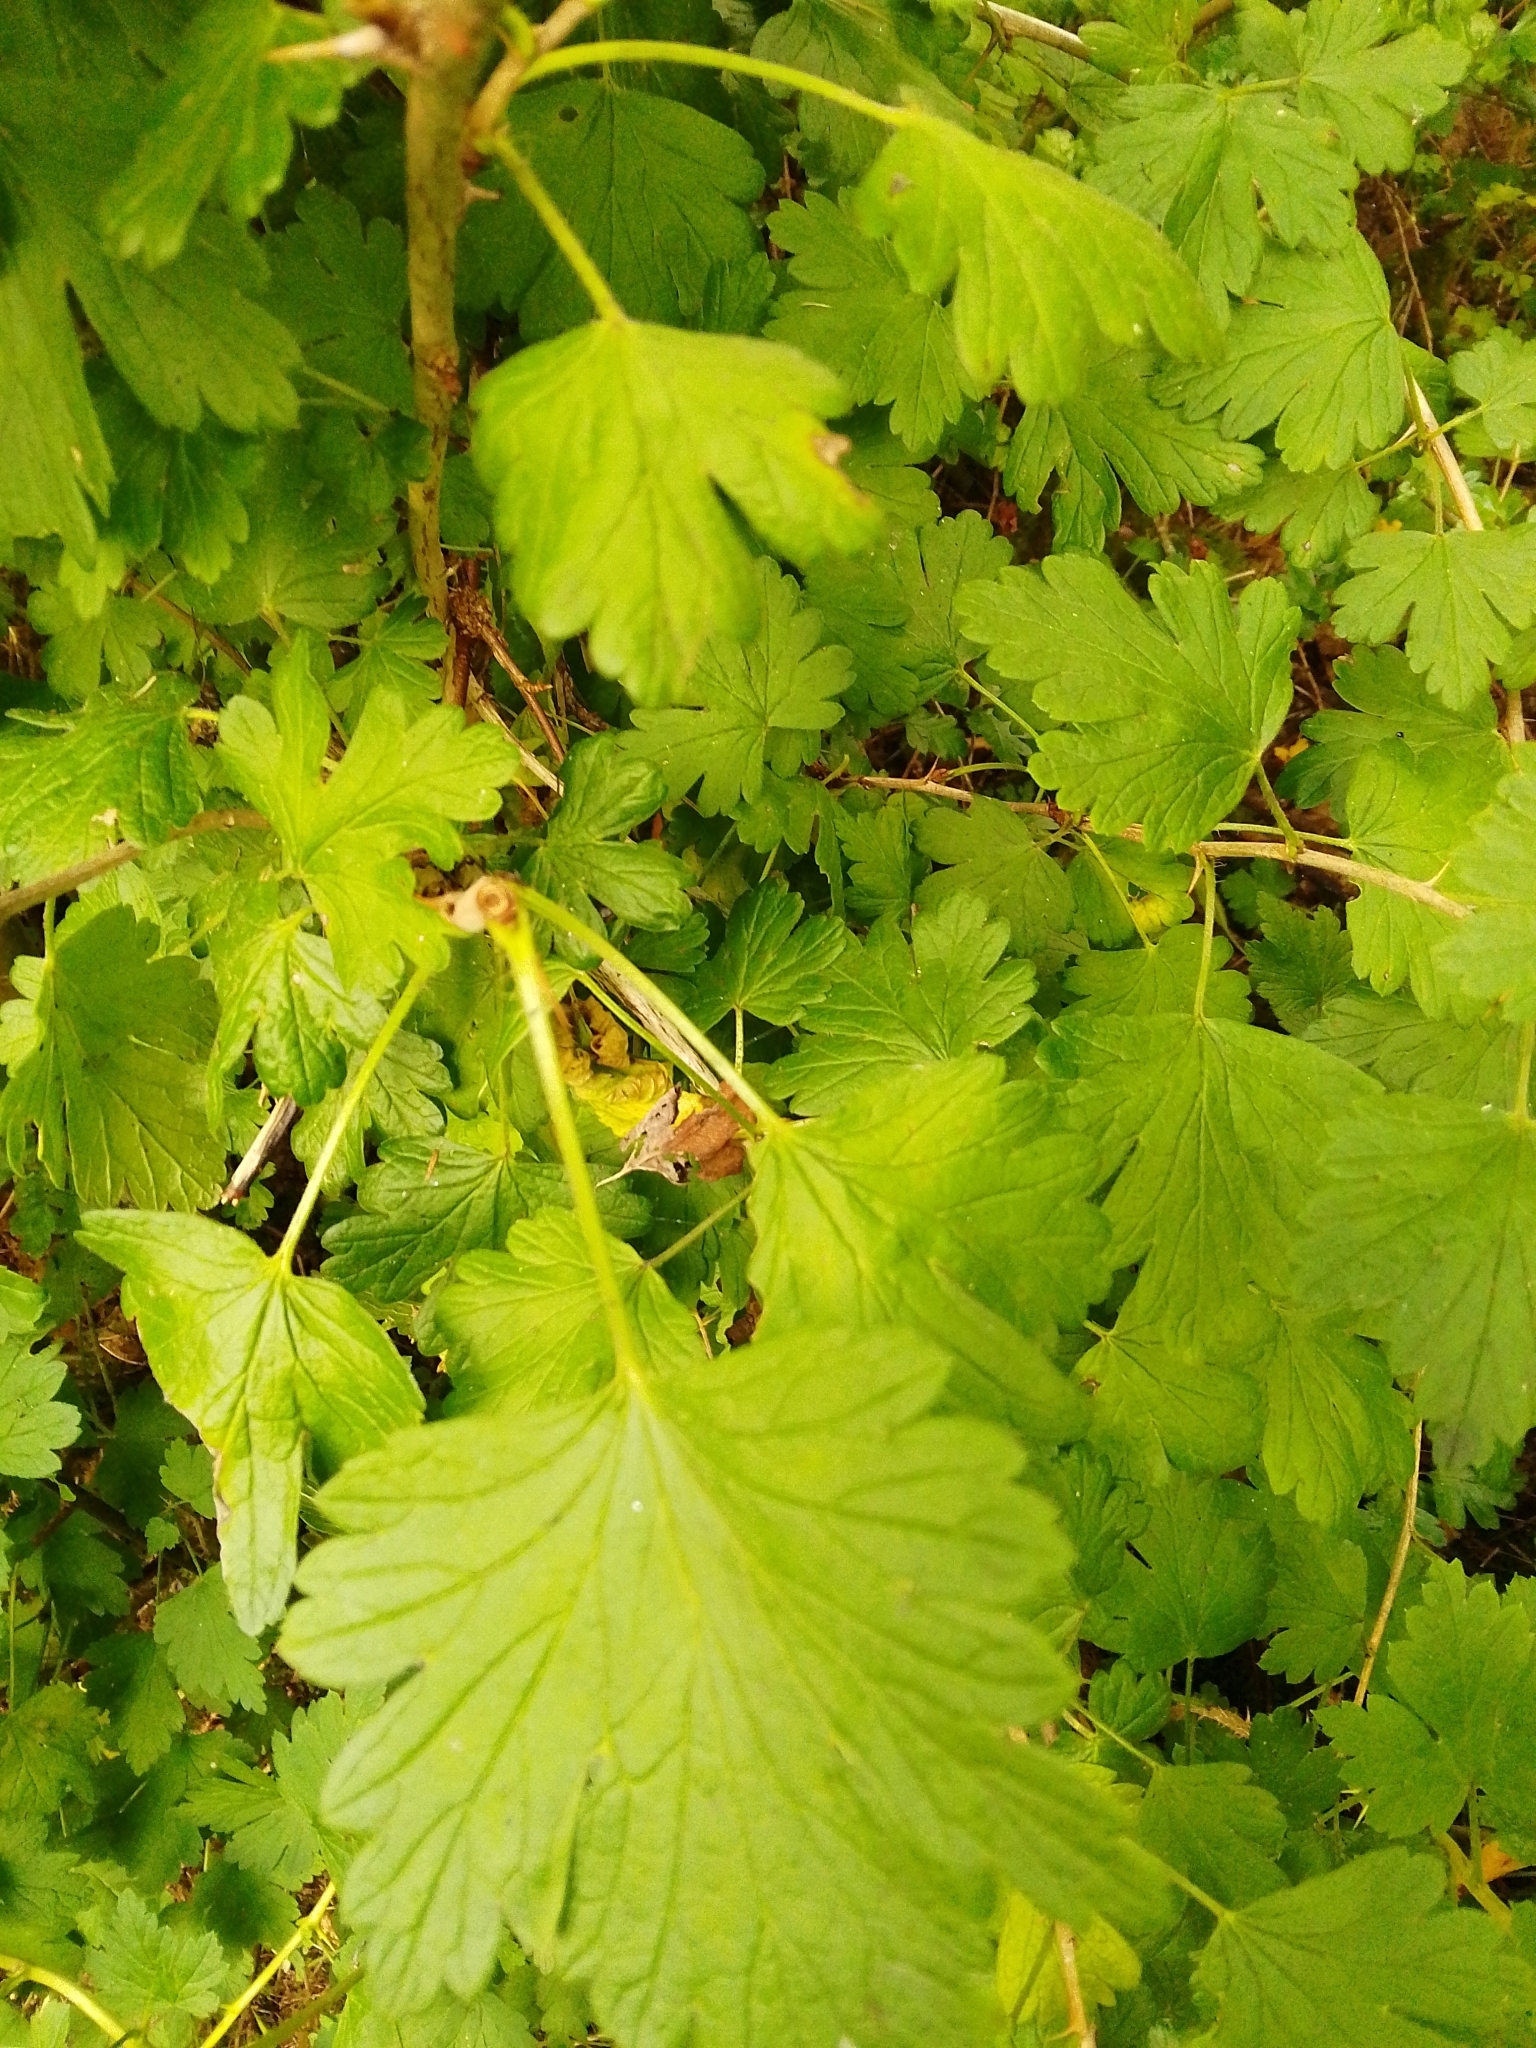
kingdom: Plantae
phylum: Tracheophyta
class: Magnoliopsida
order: Saxifragales
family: Grossulariaceae
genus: Ribes
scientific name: Ribes uva-crispa
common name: Gooseberry
